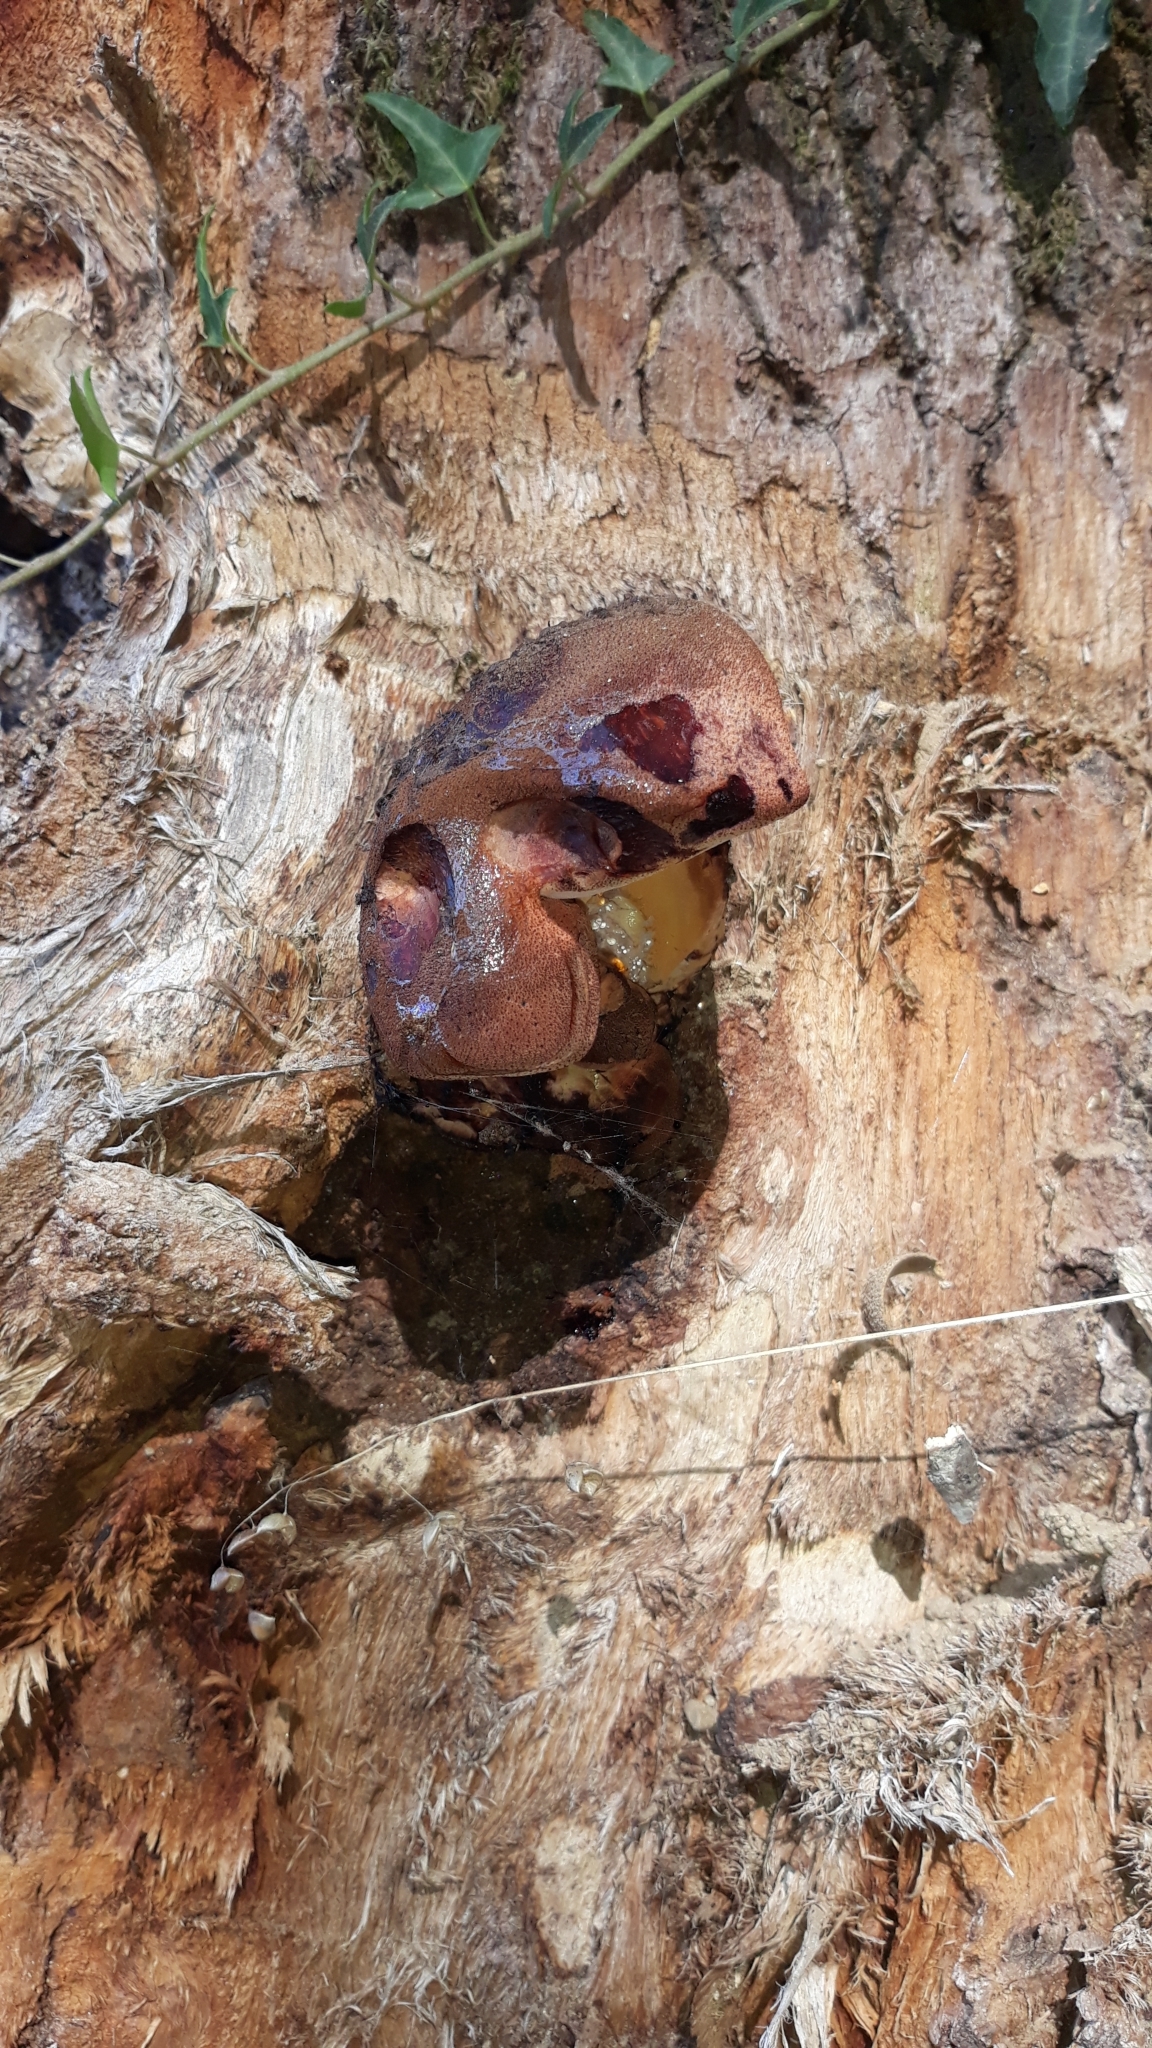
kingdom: Fungi
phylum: Basidiomycota
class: Agaricomycetes
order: Agaricales
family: Fistulinaceae
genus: Fistulina
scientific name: Fistulina hepatica
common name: Beef-steak fungus
